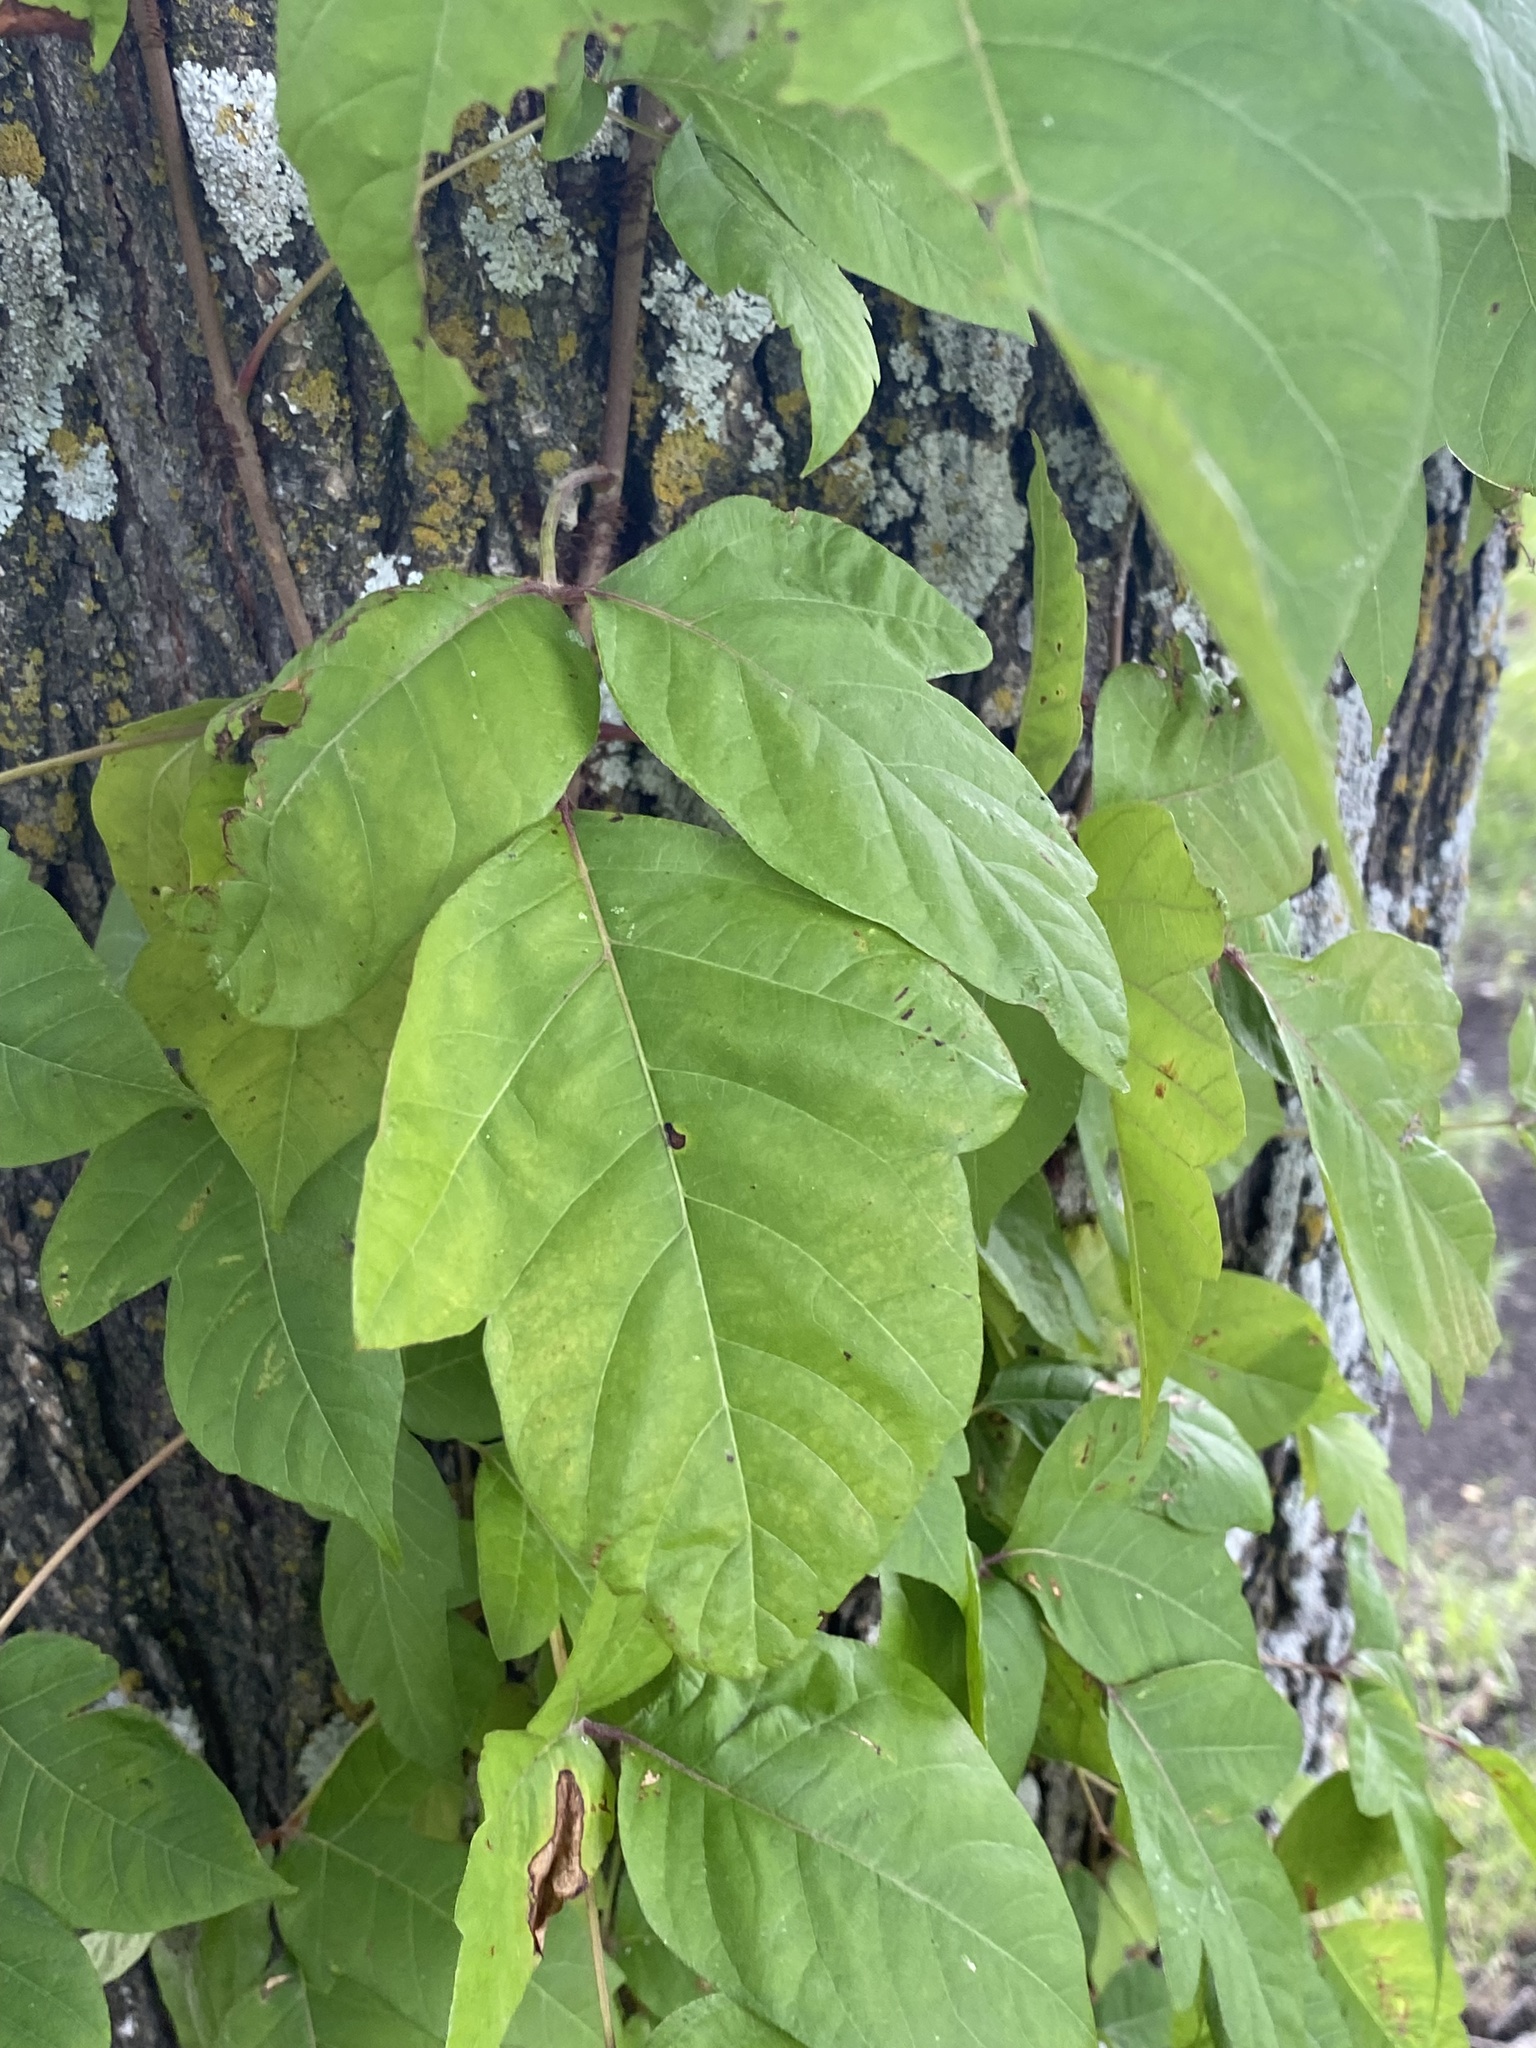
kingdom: Plantae
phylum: Tracheophyta
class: Magnoliopsida
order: Sapindales
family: Anacardiaceae
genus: Toxicodendron
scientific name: Toxicodendron radicans
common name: Poison ivy
